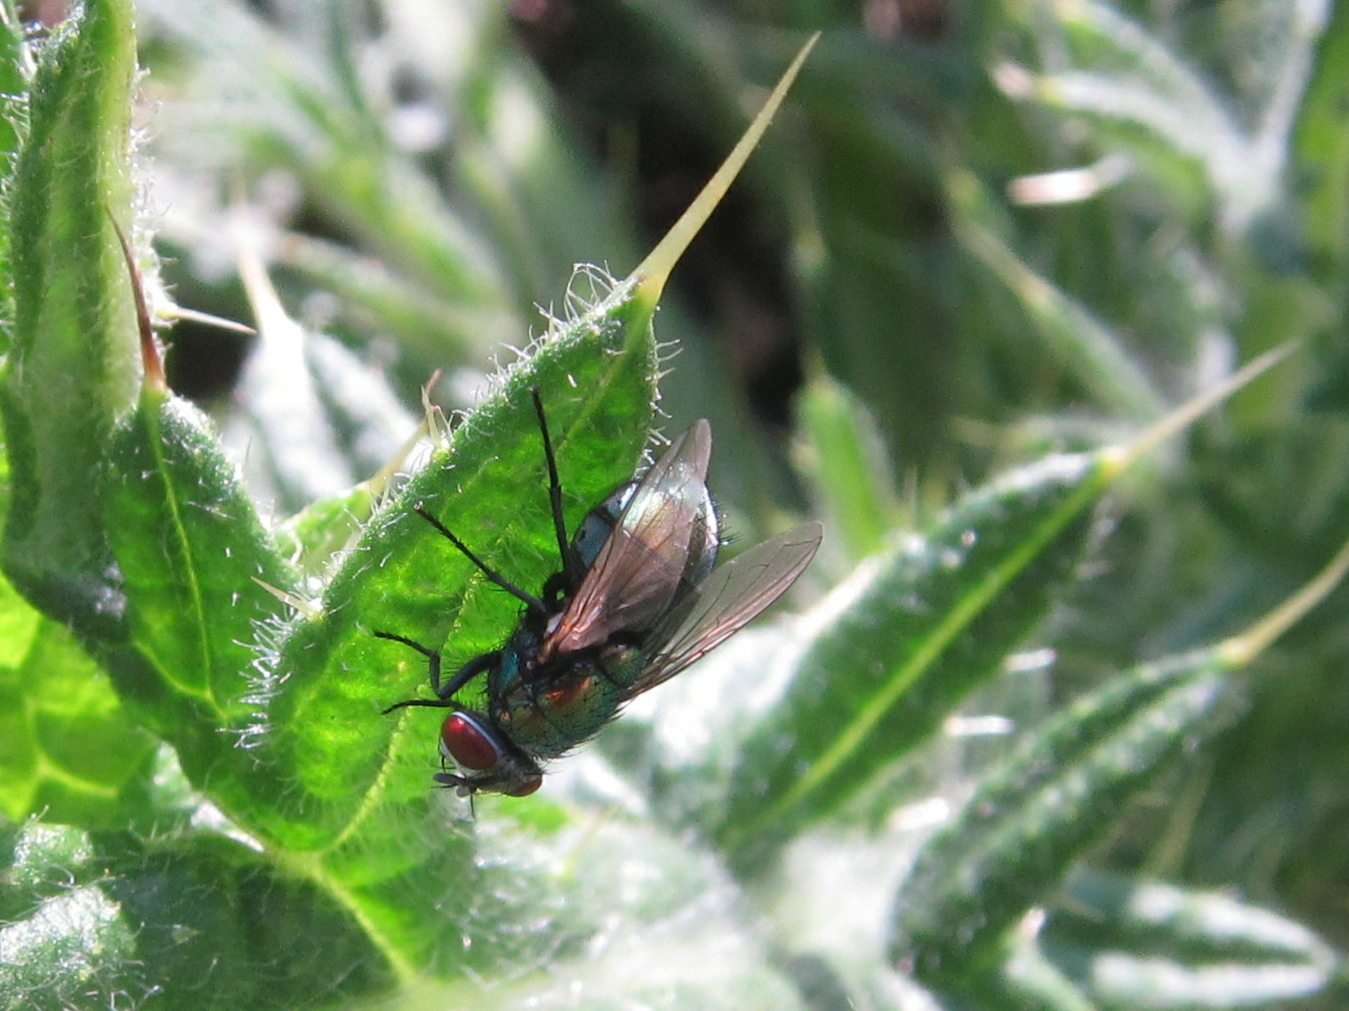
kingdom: Animalia
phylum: Arthropoda
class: Insecta
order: Diptera
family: Calliphoridae
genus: Lucilia
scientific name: Lucilia sericata
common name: Blow fly
